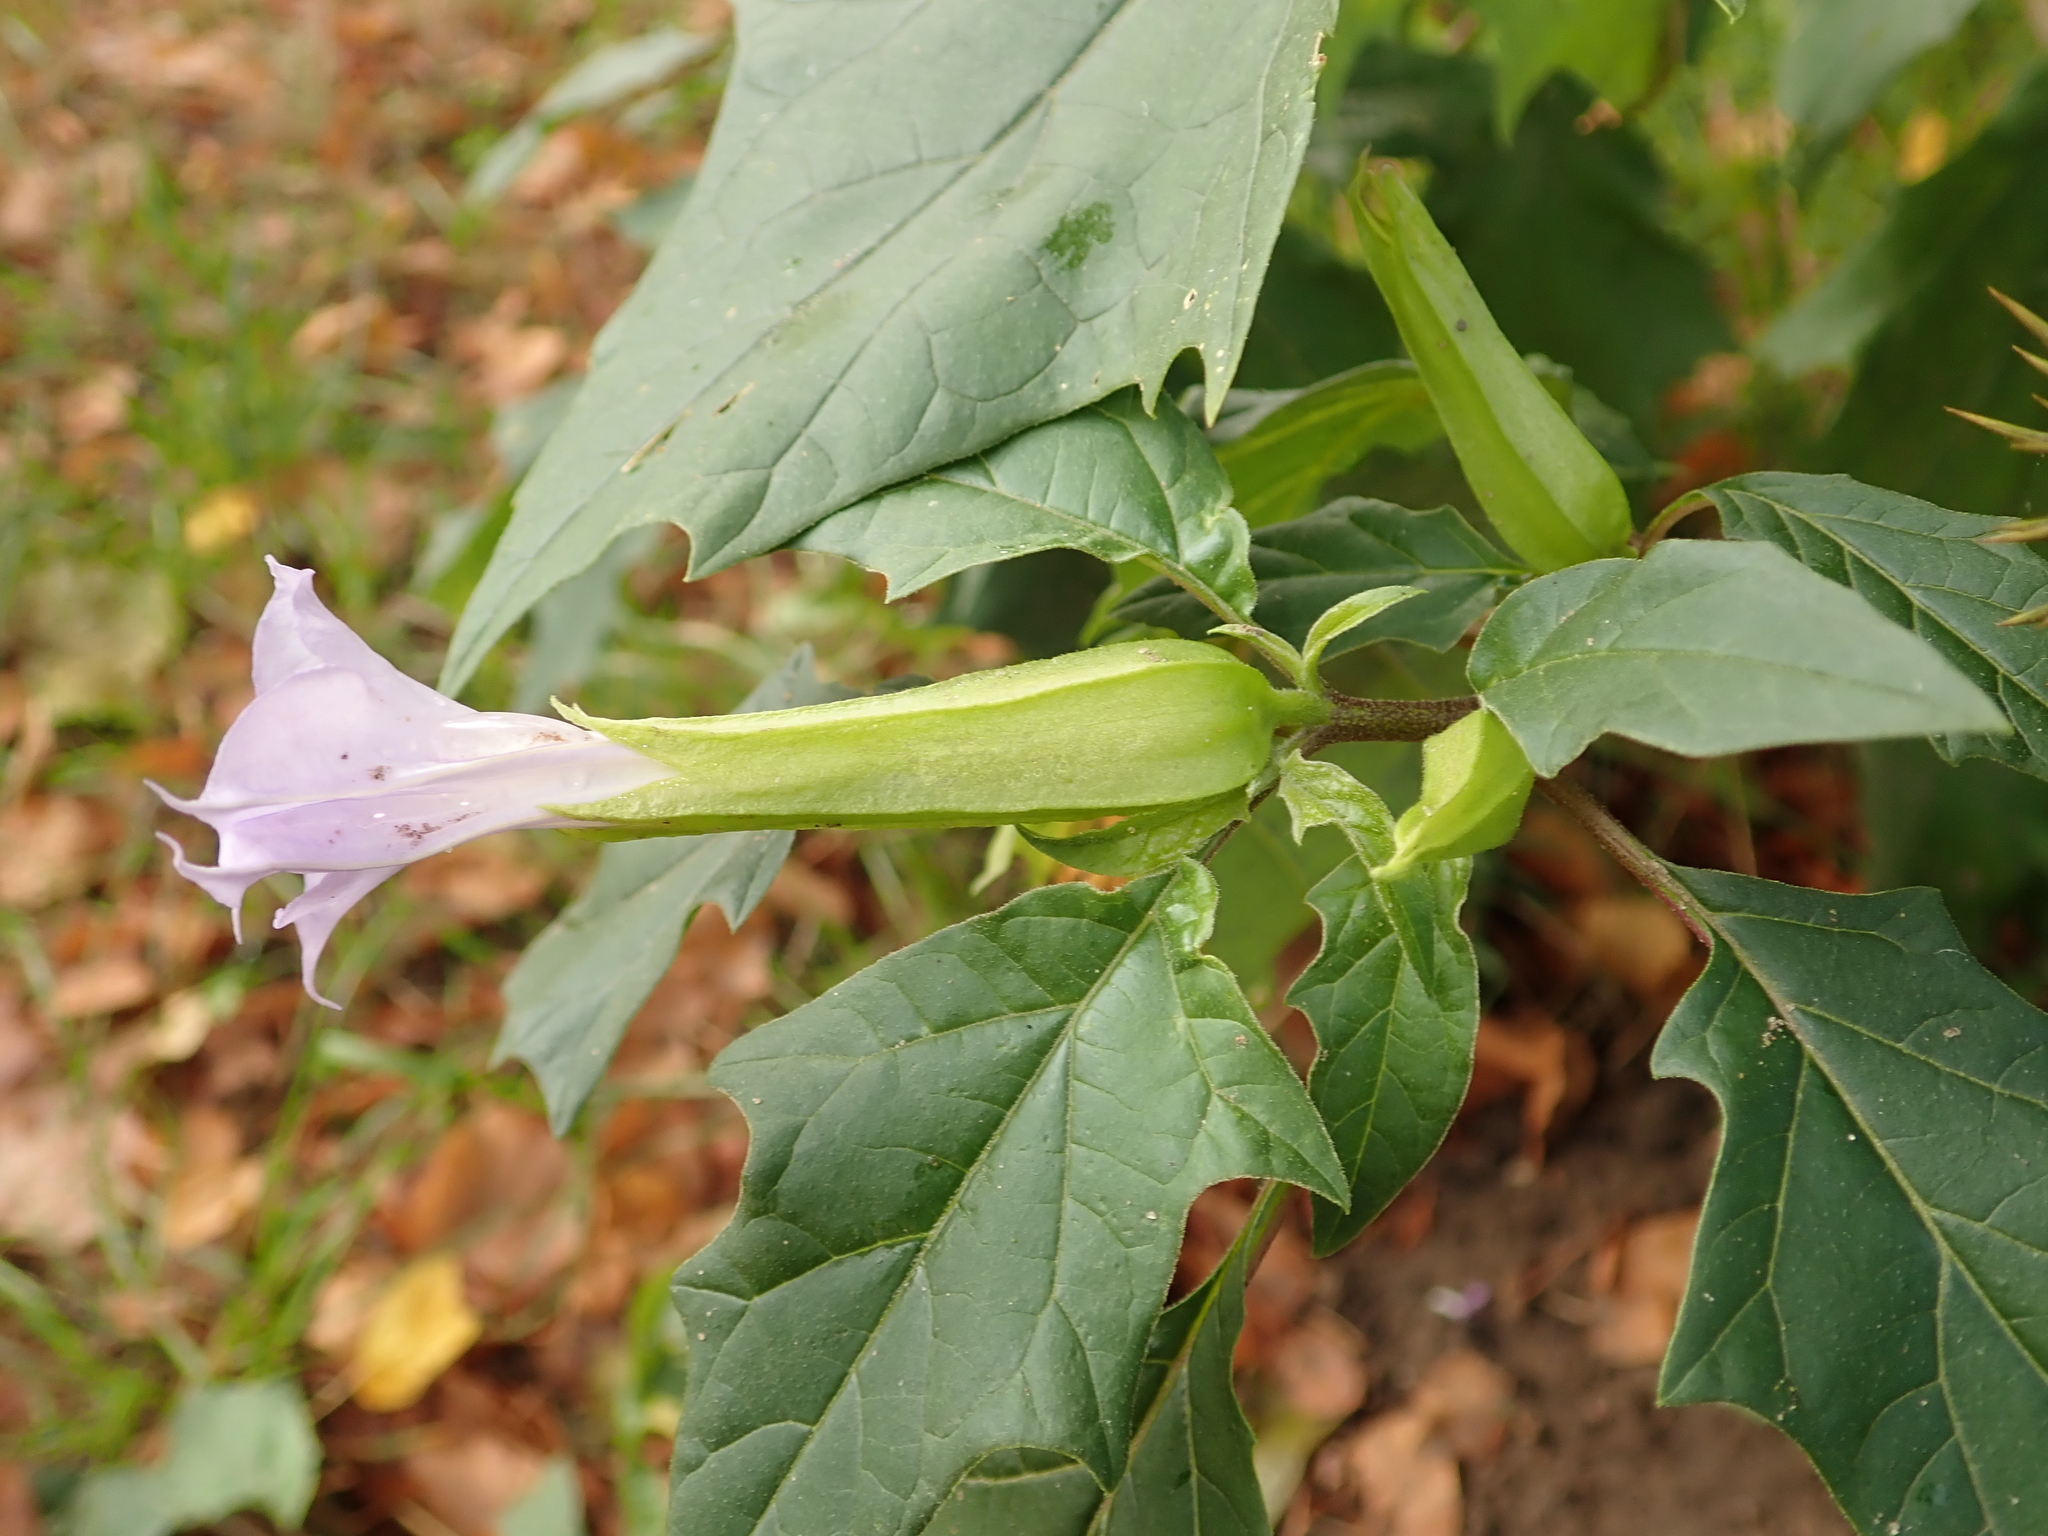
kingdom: Plantae
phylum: Tracheophyta
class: Magnoliopsida
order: Solanales
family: Solanaceae
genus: Datura
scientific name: Datura stramonium
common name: Thorn-apple
